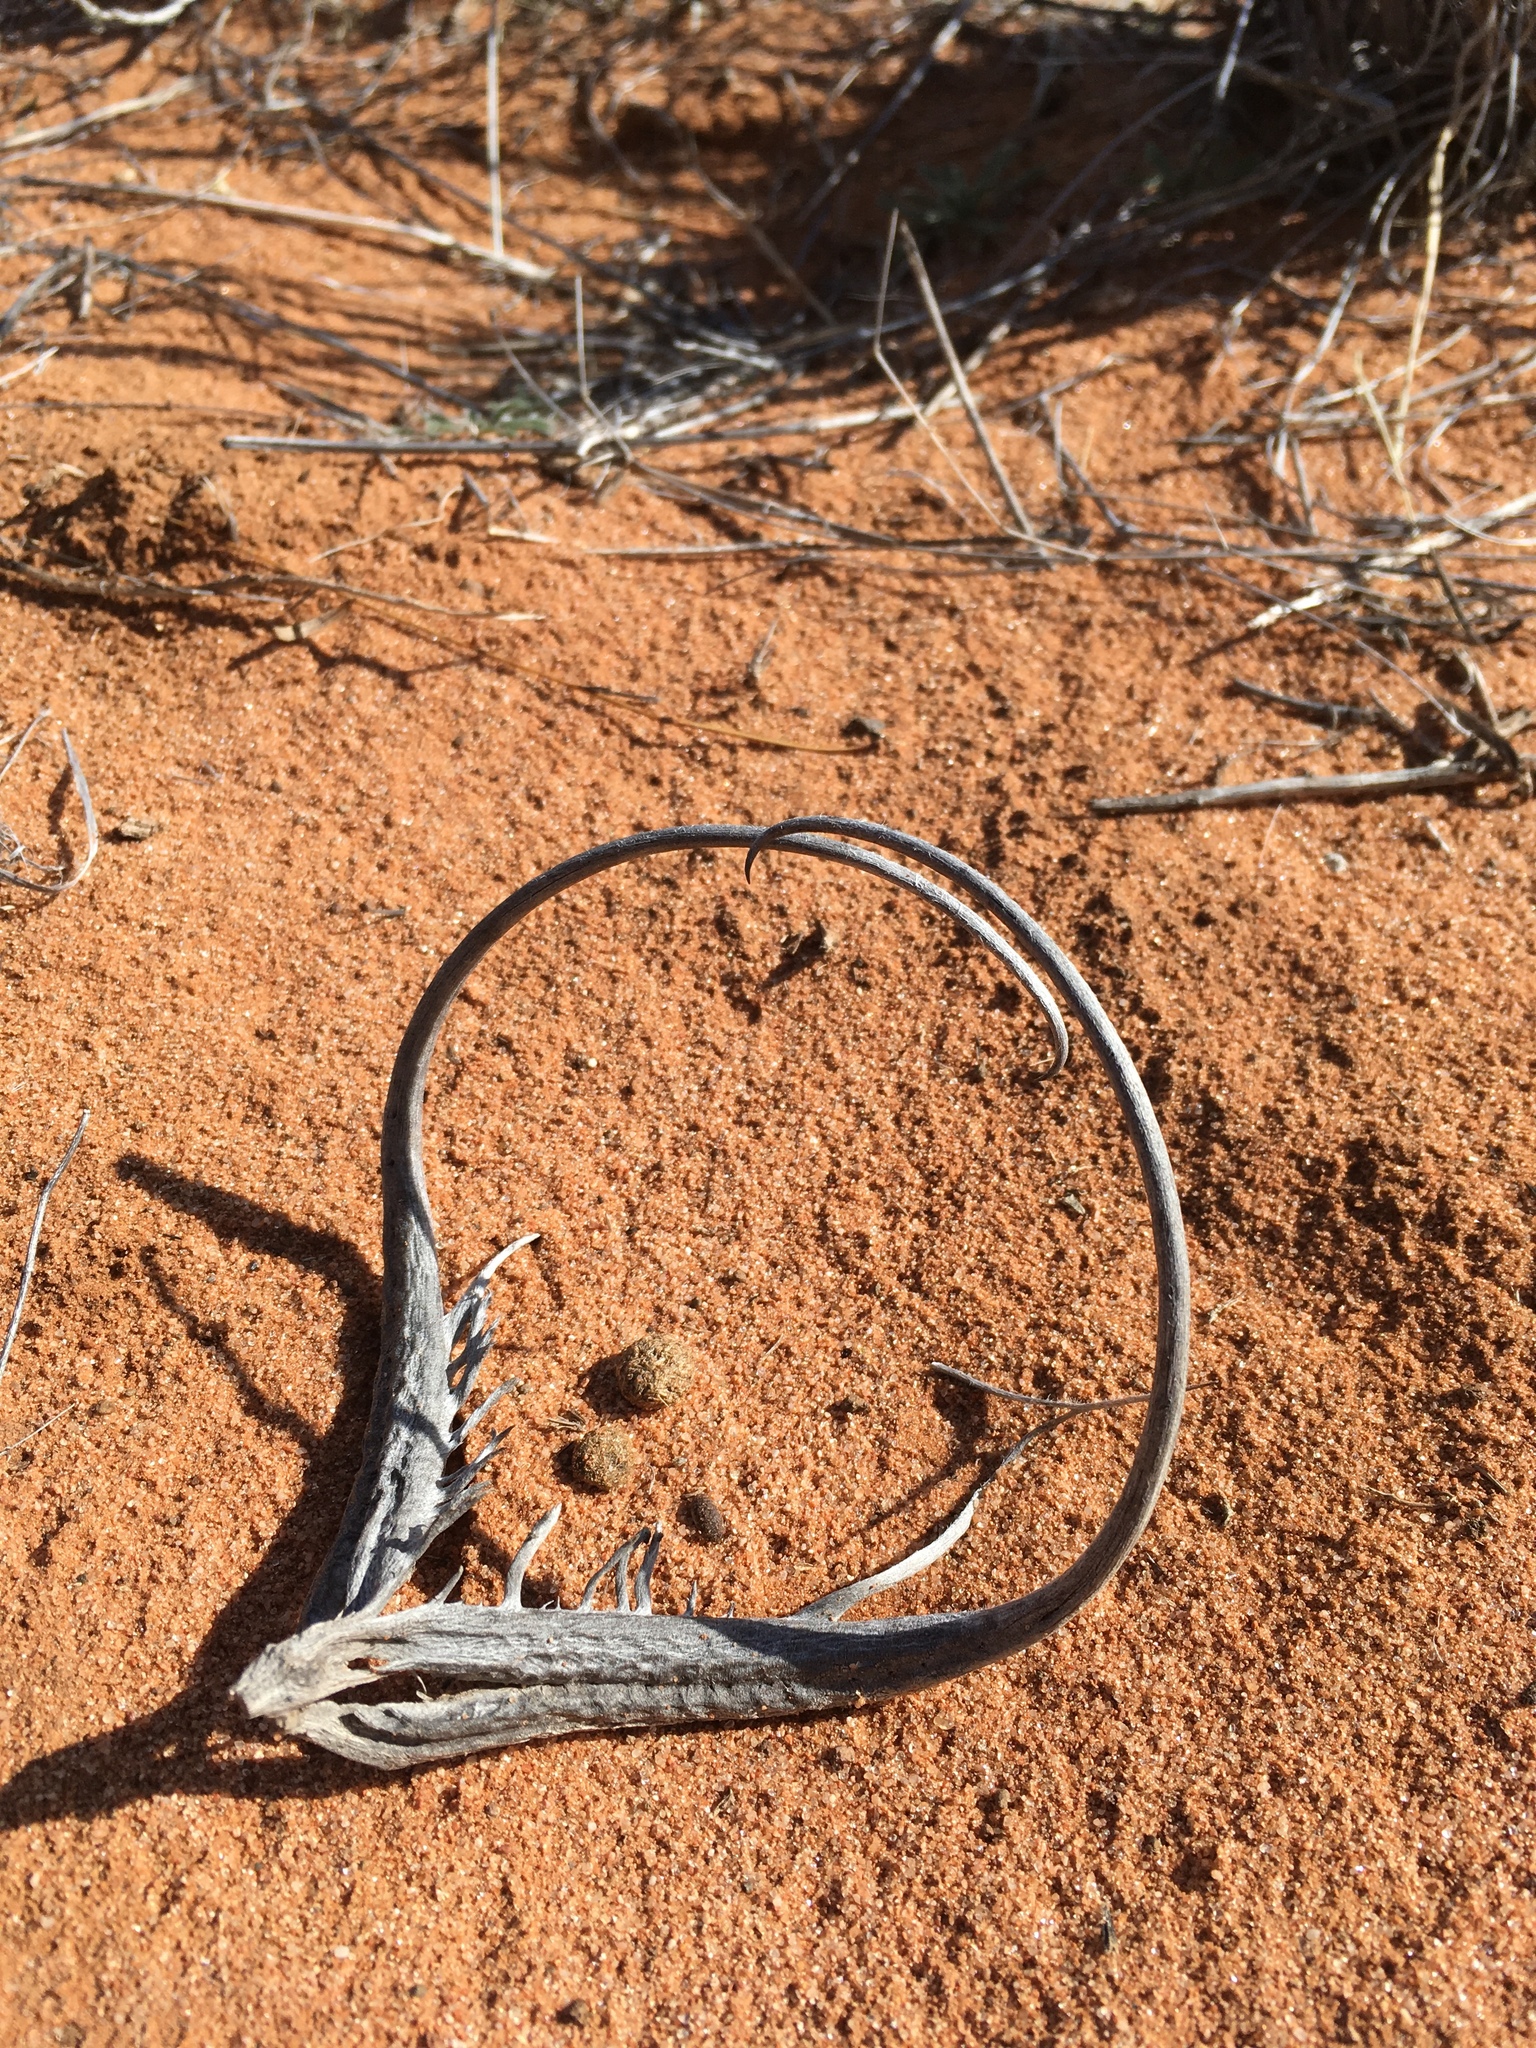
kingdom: Plantae
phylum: Tracheophyta
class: Magnoliopsida
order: Lamiales
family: Martyniaceae
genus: Proboscidea
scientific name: Proboscidea althaeifolia
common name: Desert unicorn-plant
